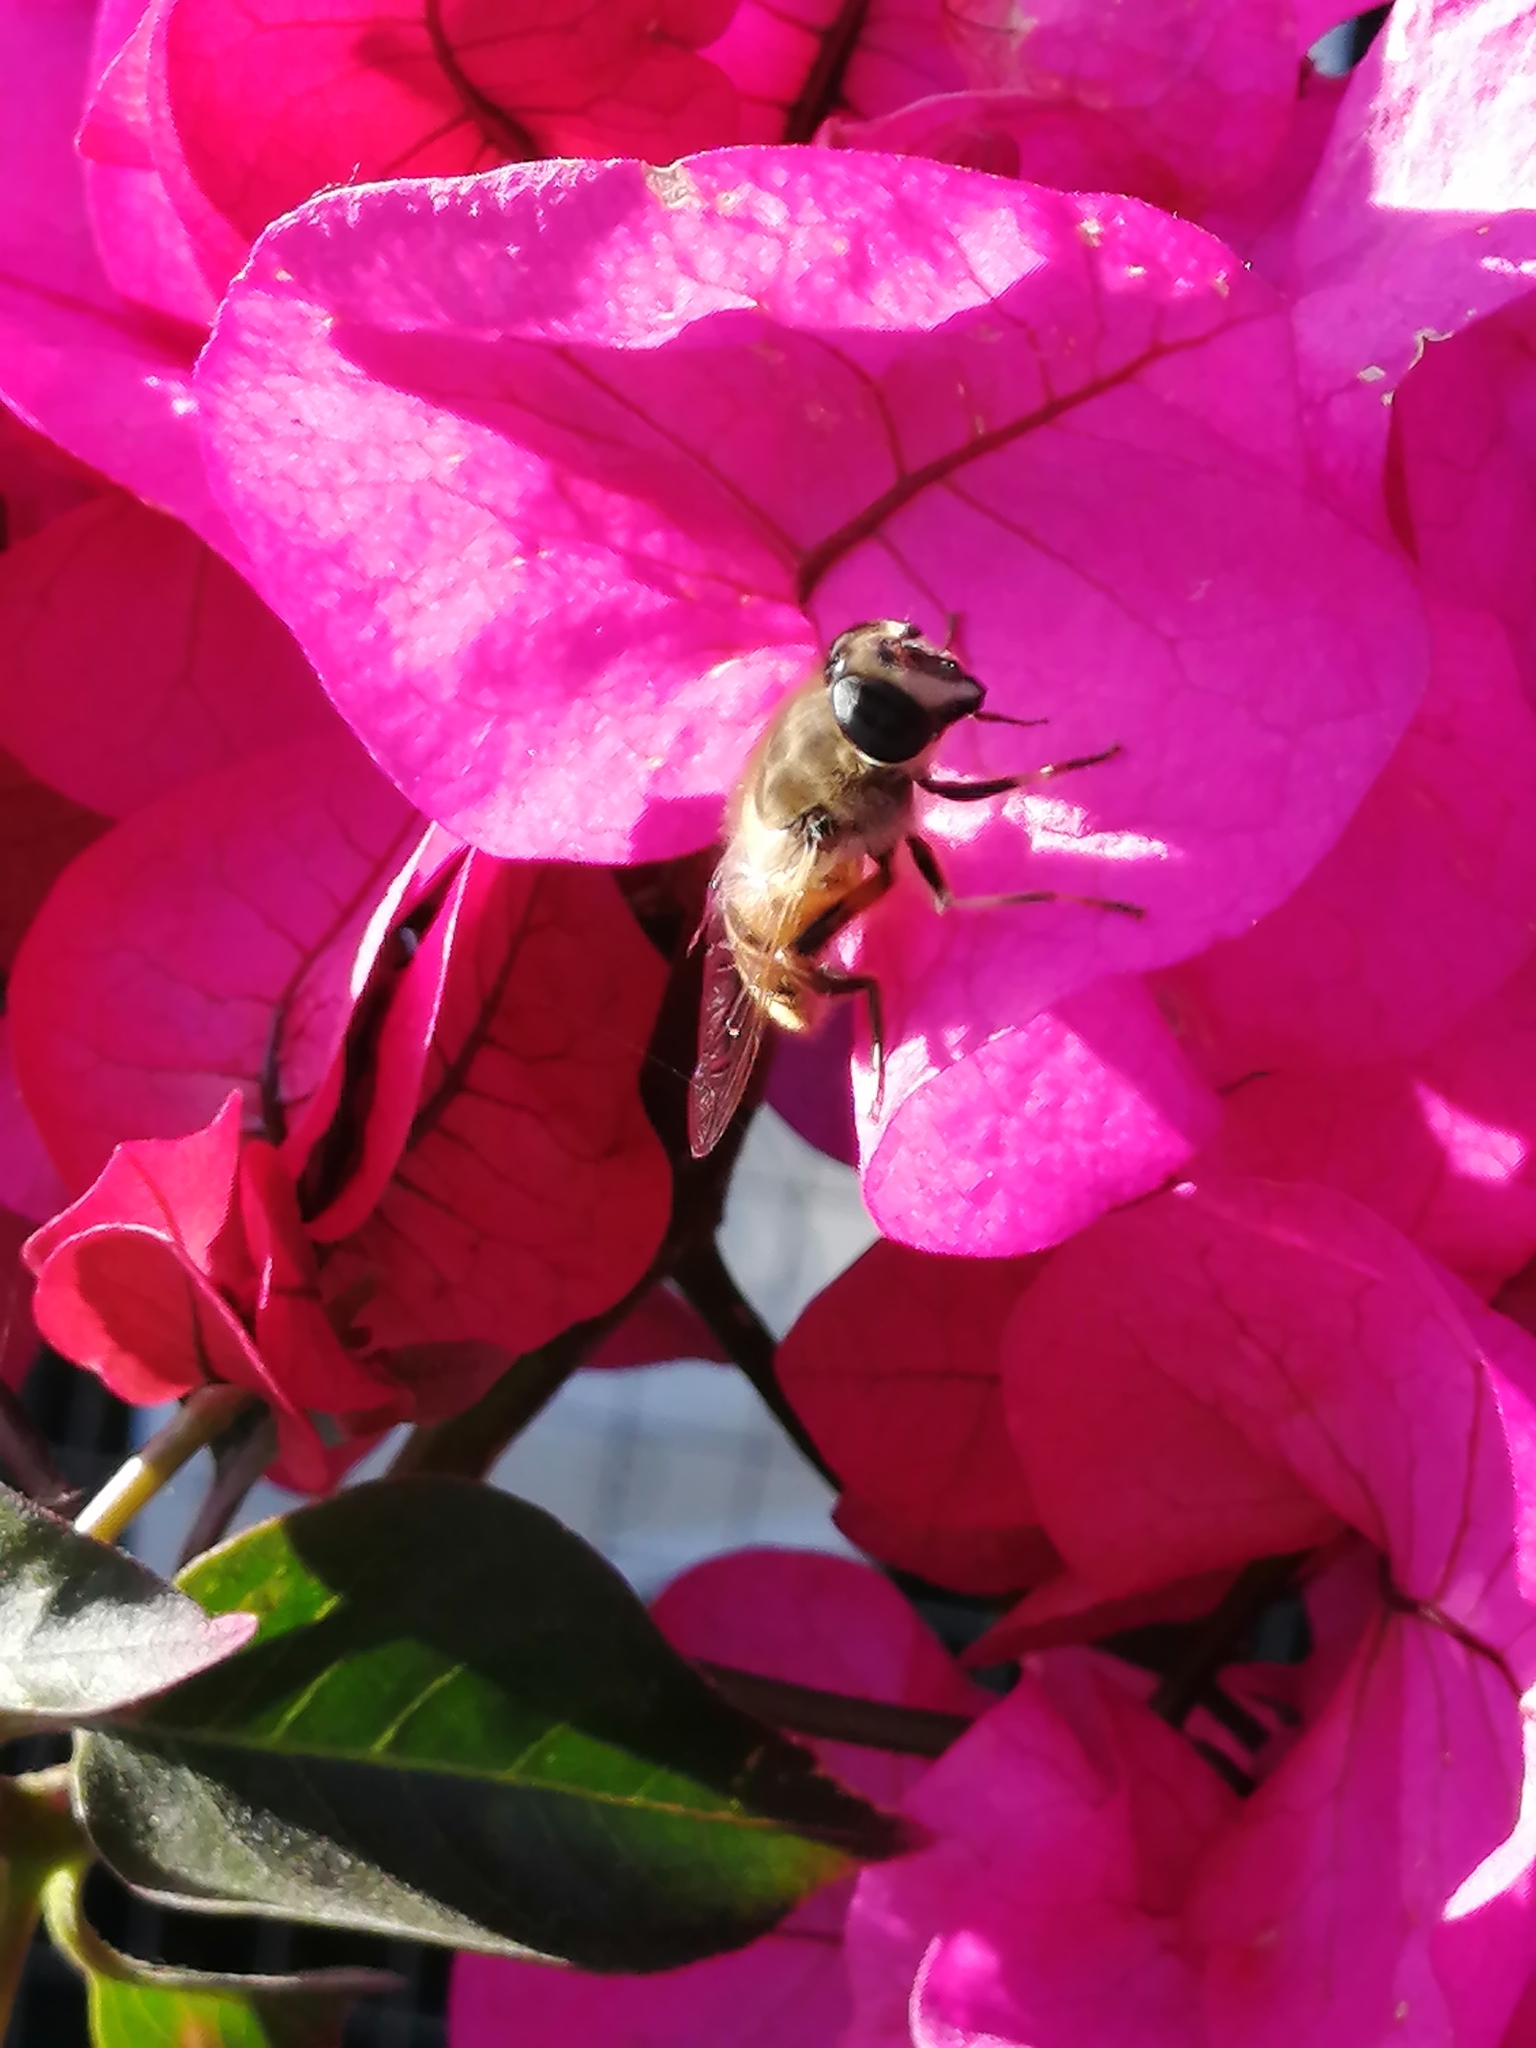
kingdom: Animalia
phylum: Arthropoda
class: Insecta
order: Diptera
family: Syrphidae
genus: Eristalis
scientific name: Eristalis tenax
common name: Drone fly
